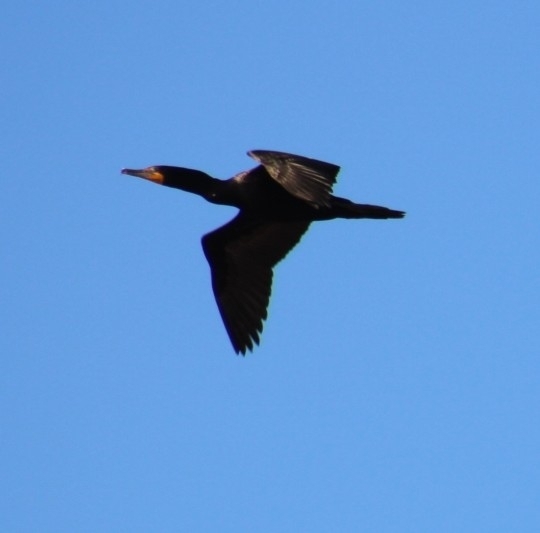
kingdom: Animalia
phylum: Chordata
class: Aves
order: Suliformes
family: Phalacrocoracidae
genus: Phalacrocorax
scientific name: Phalacrocorax auritus
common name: Double-crested cormorant
